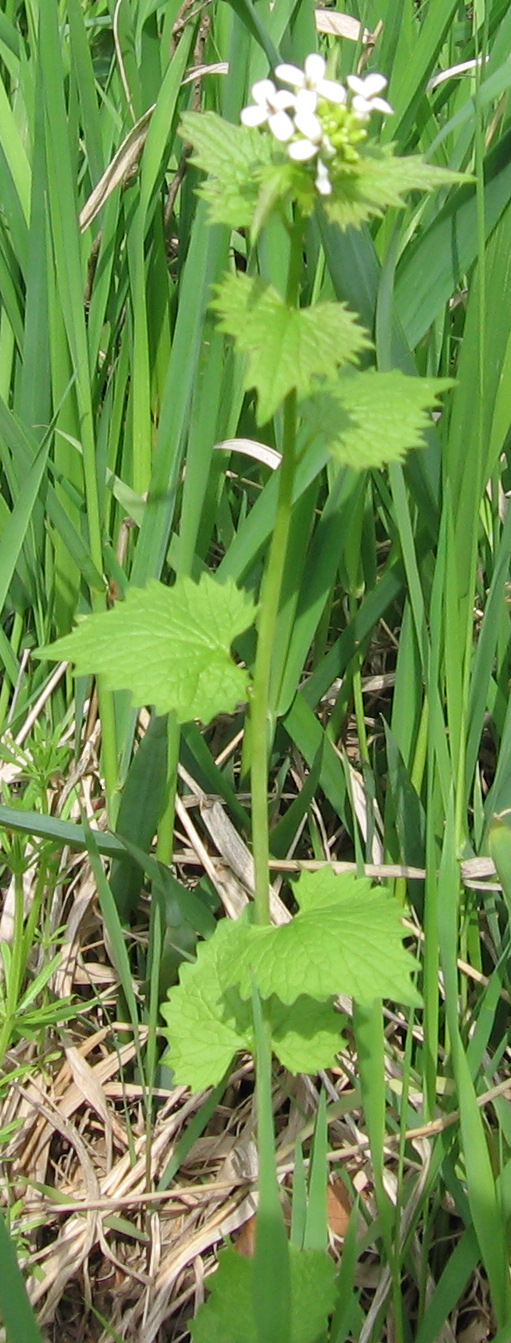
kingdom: Plantae
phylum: Tracheophyta
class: Magnoliopsida
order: Brassicales
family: Brassicaceae
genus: Alliaria
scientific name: Alliaria petiolata
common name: Garlic mustard
